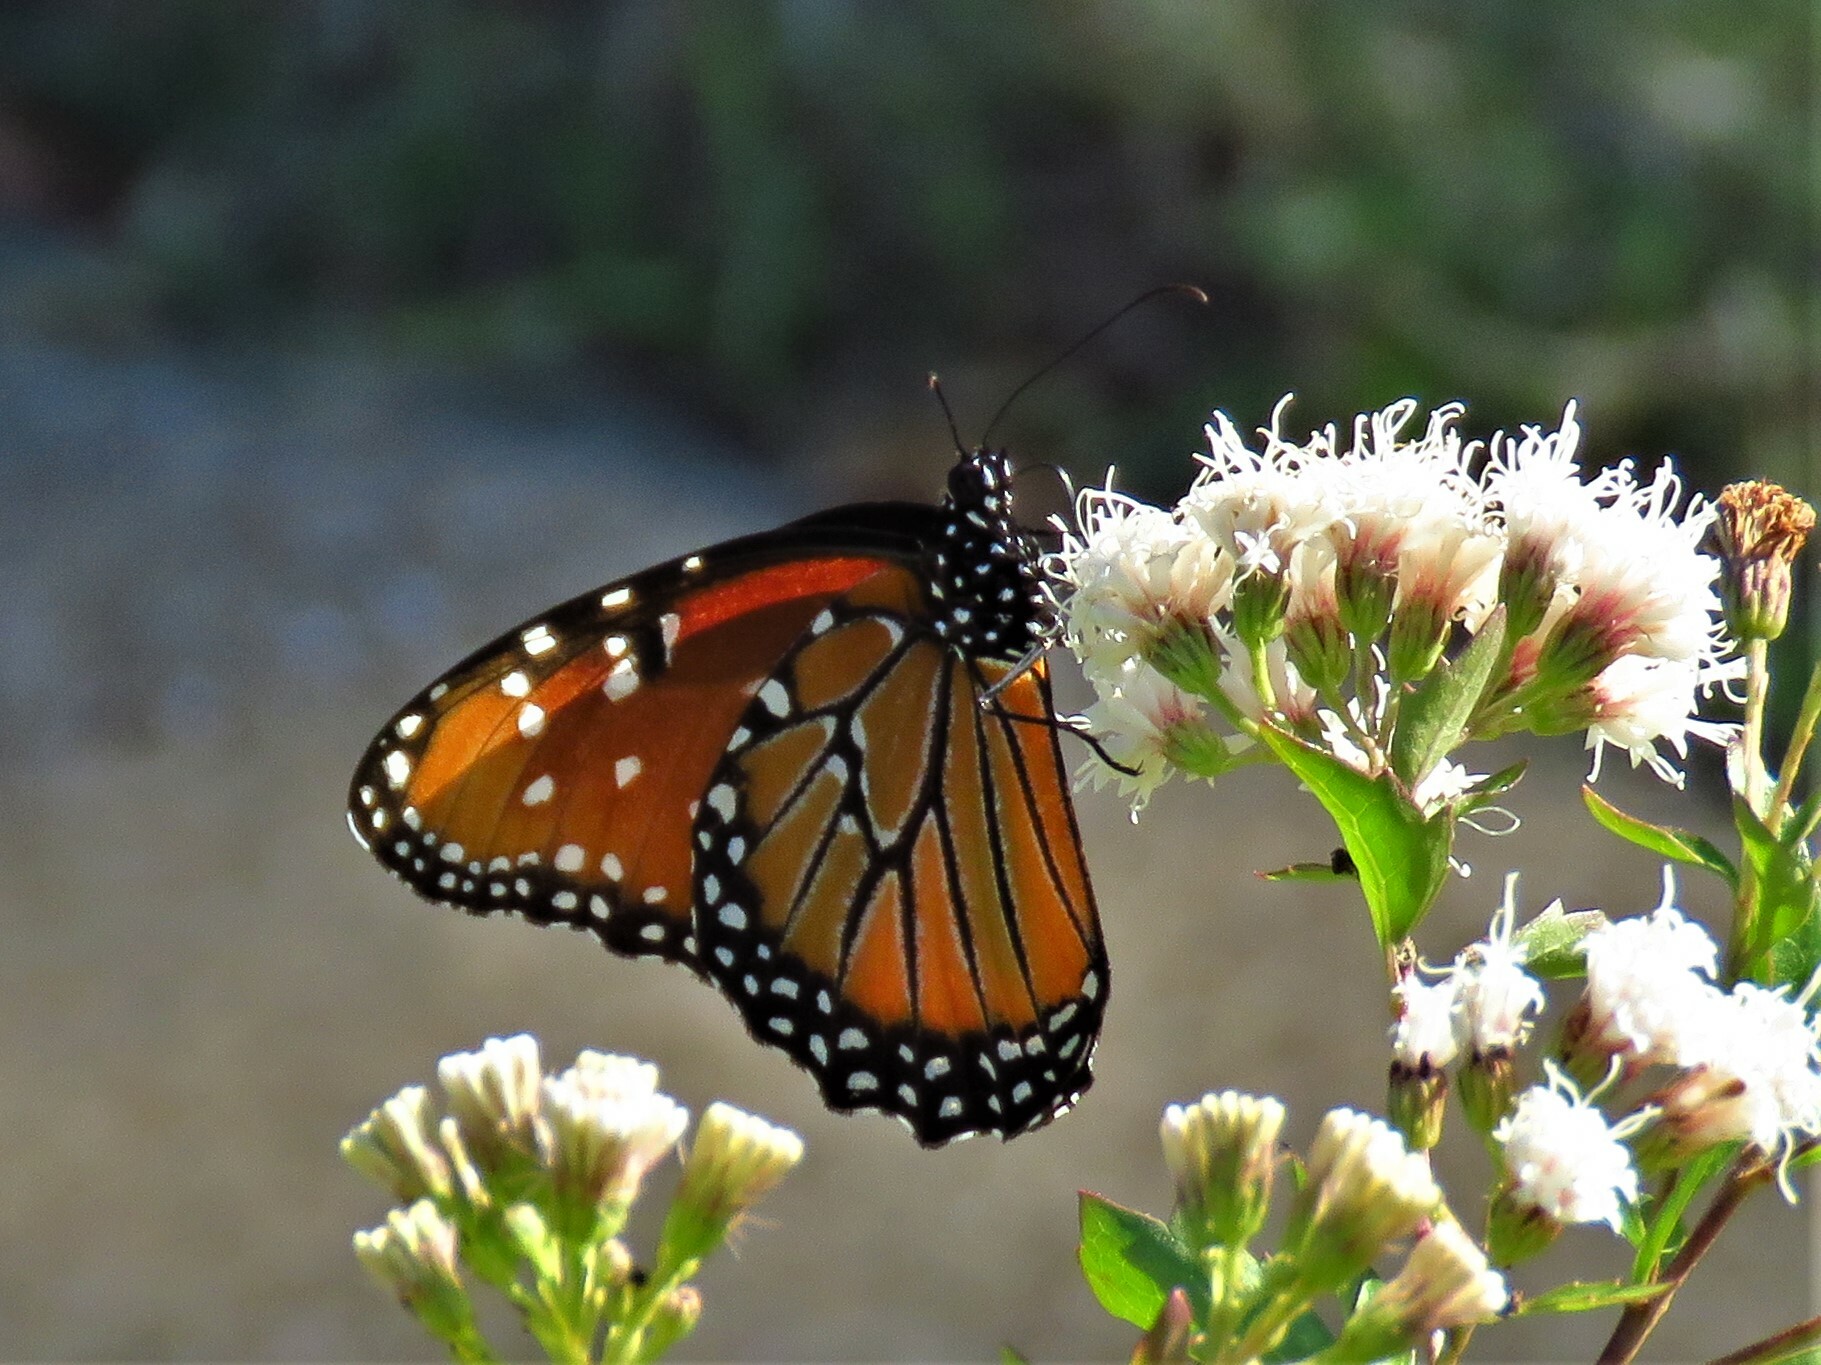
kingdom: Animalia
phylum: Arthropoda
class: Insecta
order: Lepidoptera
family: Nymphalidae
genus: Danaus
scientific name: Danaus gilippus
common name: Queen
